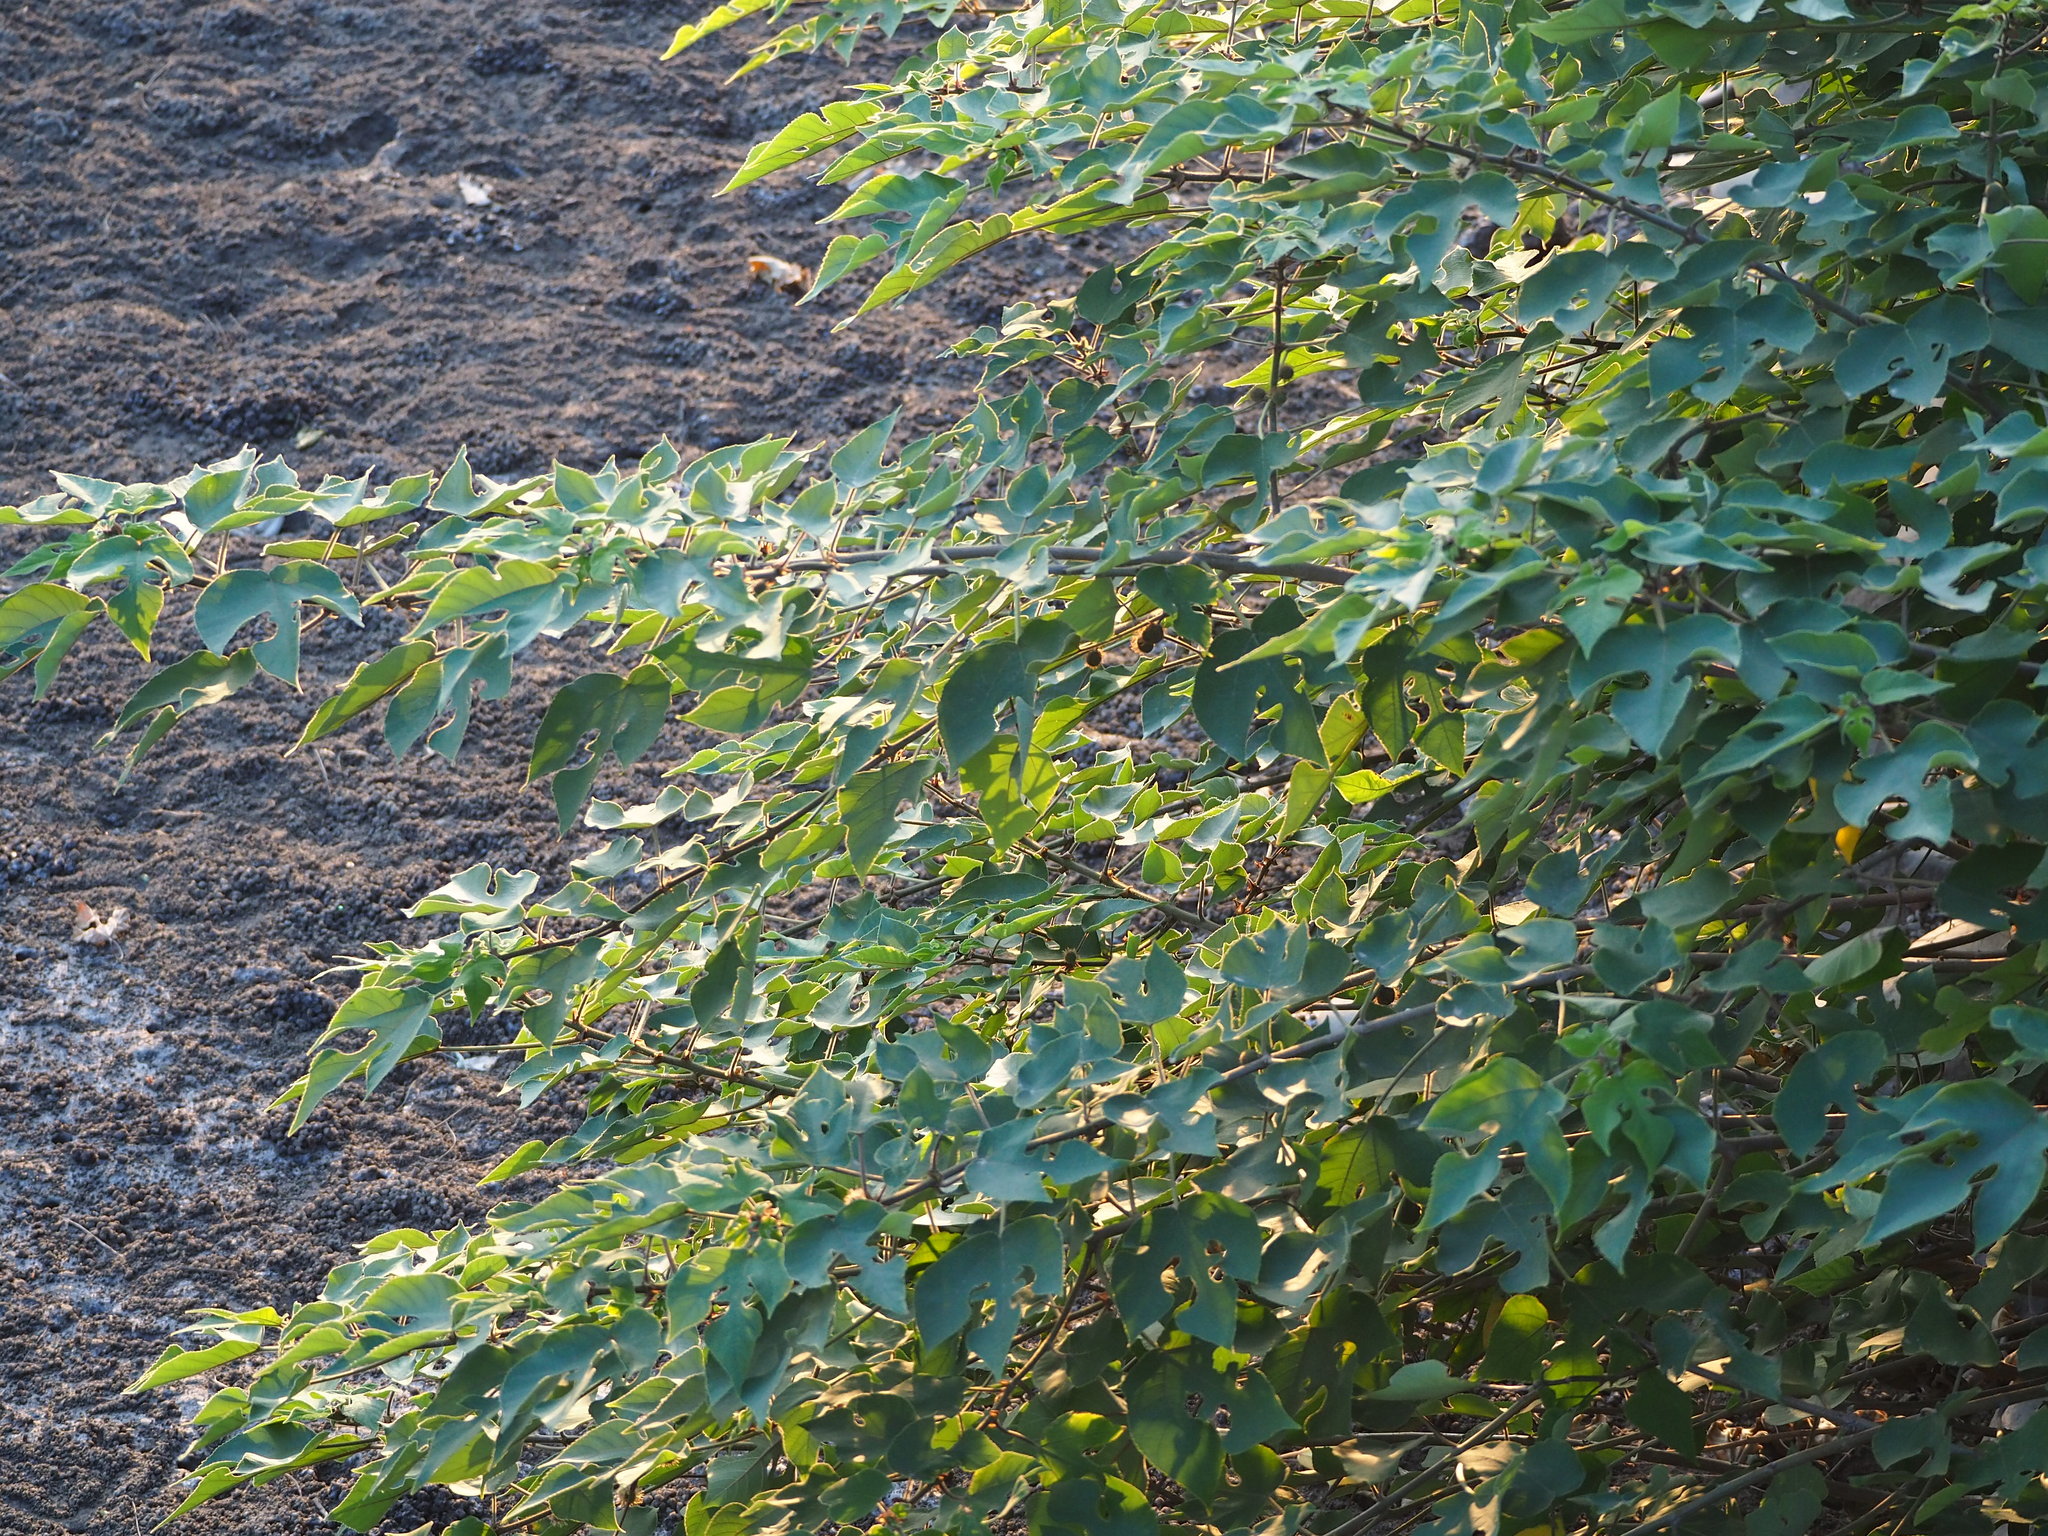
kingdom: Plantae
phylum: Tracheophyta
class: Magnoliopsida
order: Rosales
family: Moraceae
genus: Broussonetia
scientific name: Broussonetia papyrifera
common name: Paper mulberry
